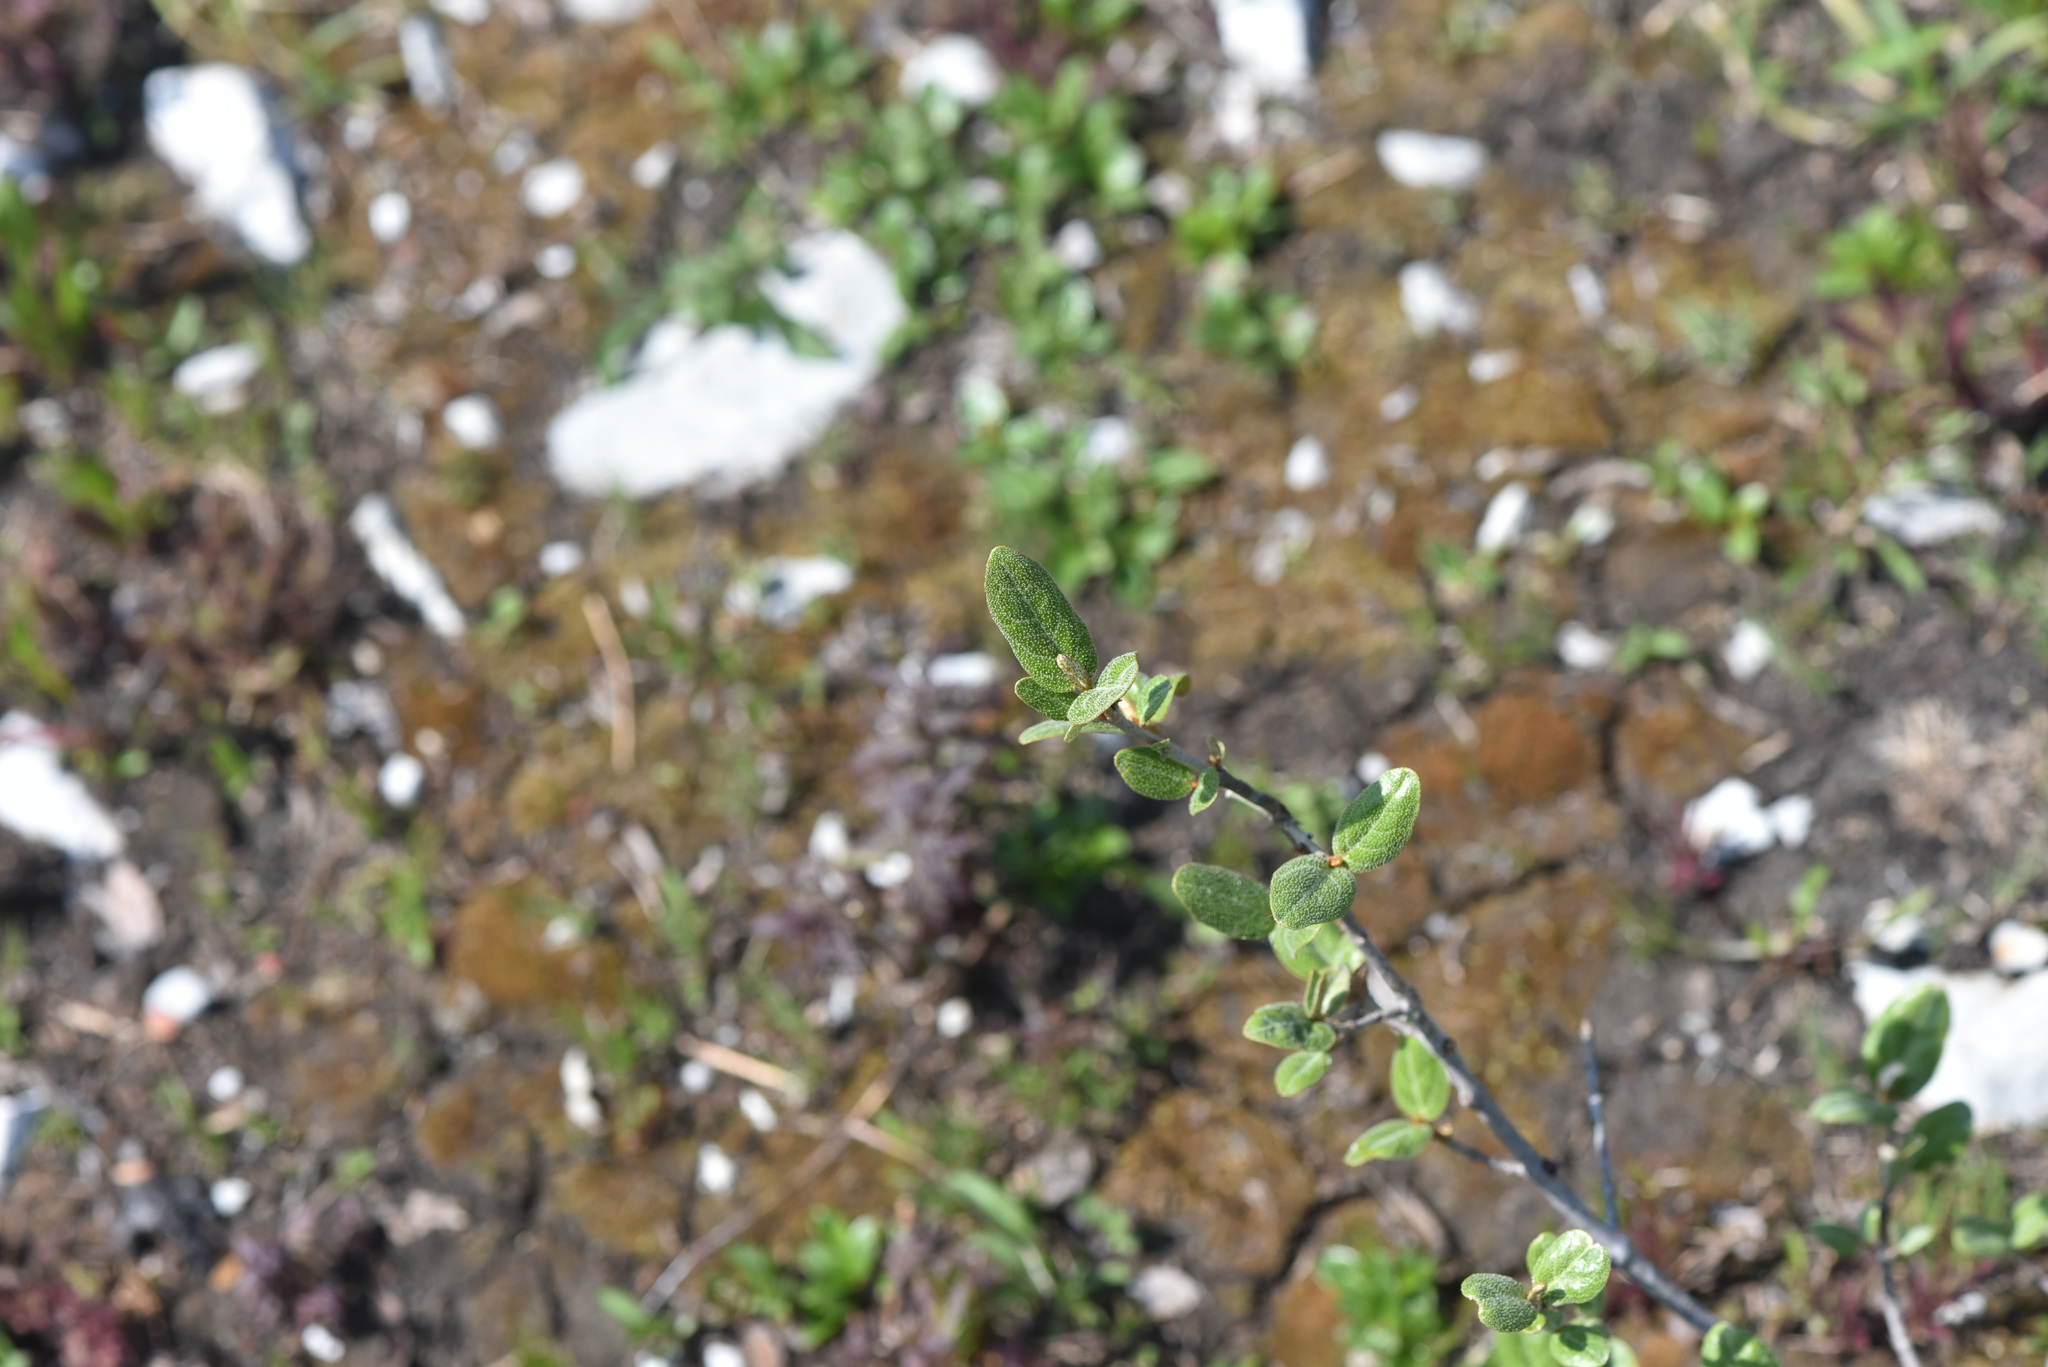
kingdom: Plantae
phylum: Tracheophyta
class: Magnoliopsida
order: Rosales
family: Elaeagnaceae
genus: Shepherdia
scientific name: Shepherdia canadensis
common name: Soapberry
